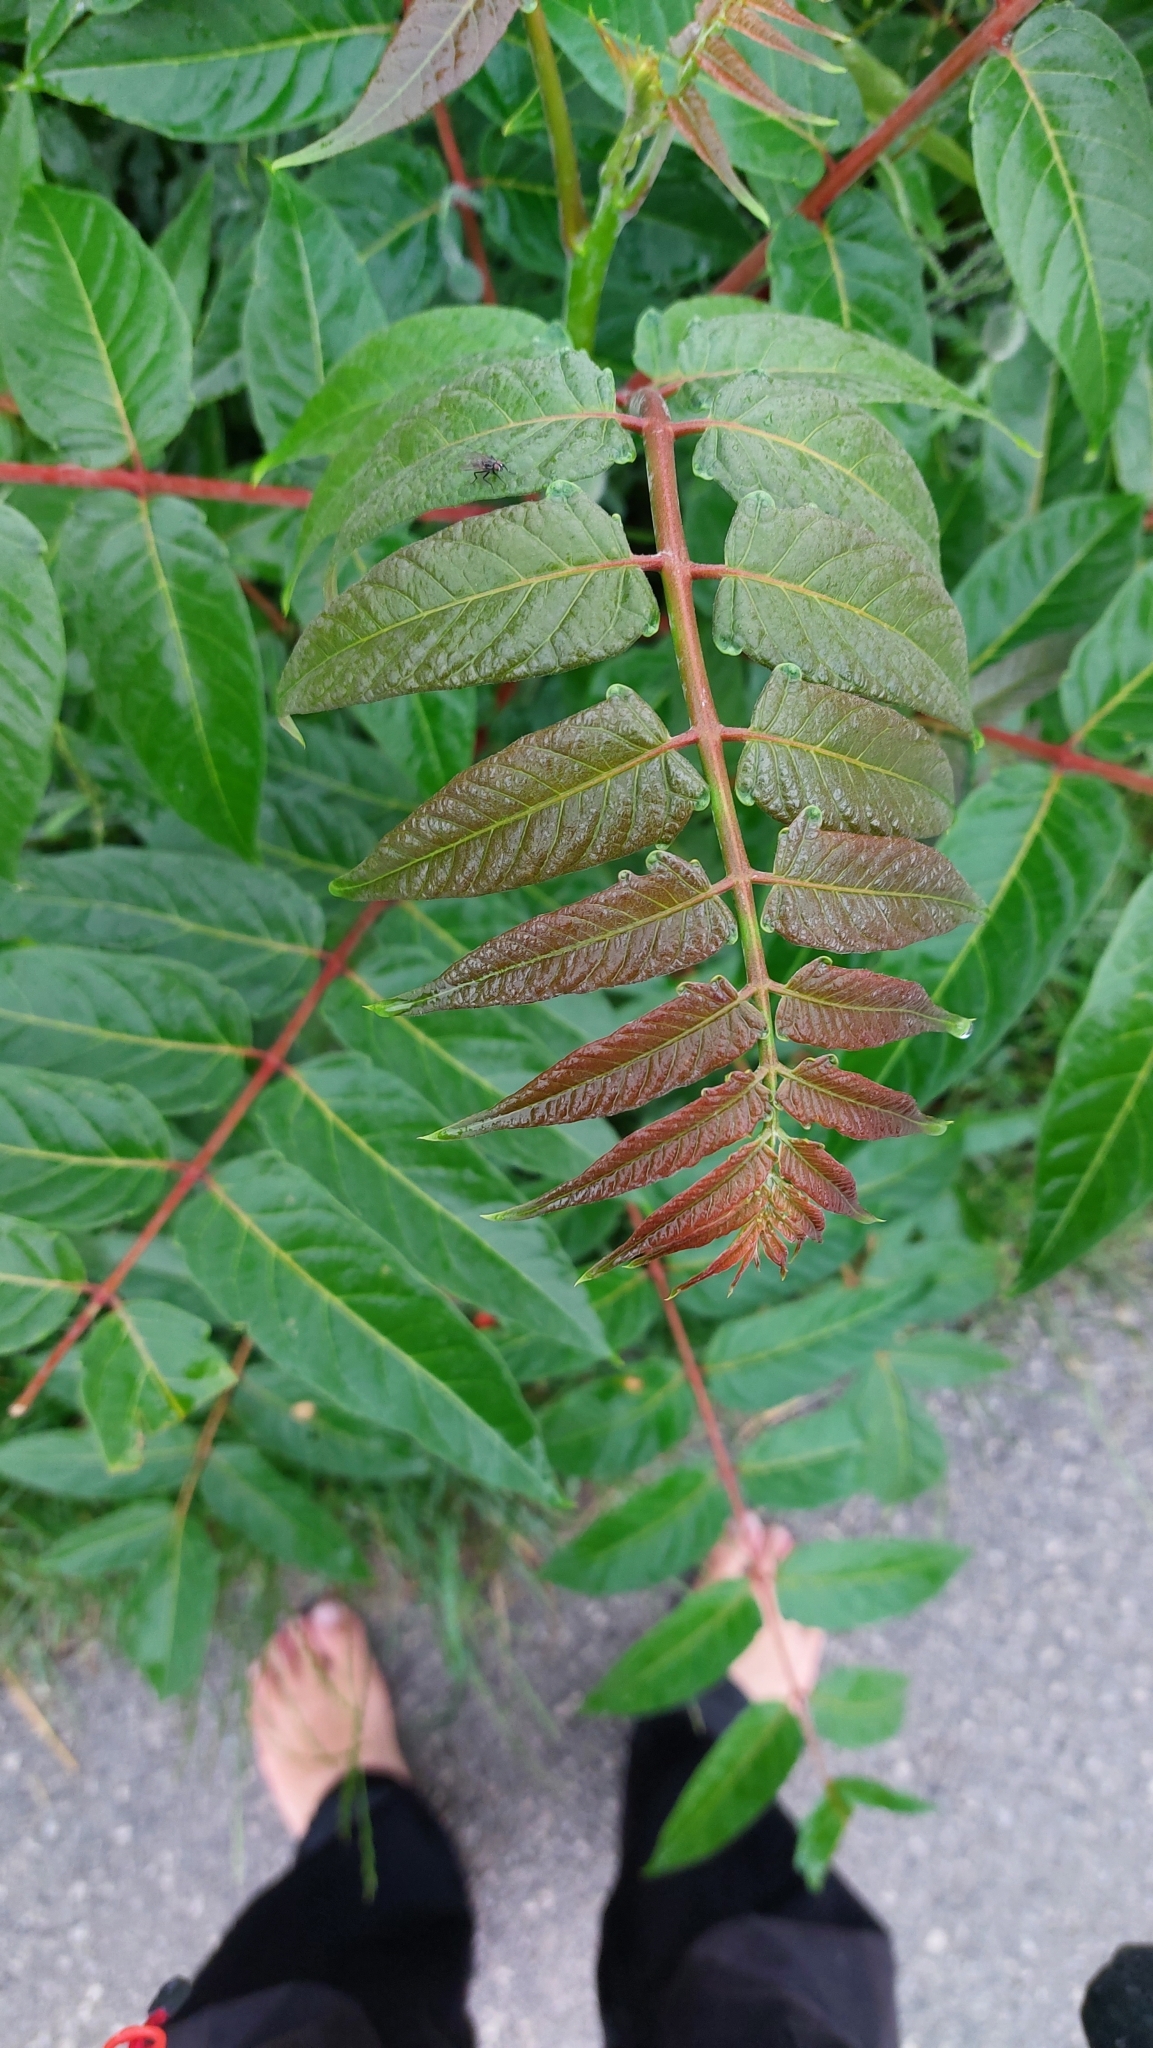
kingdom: Plantae
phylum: Tracheophyta
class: Magnoliopsida
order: Sapindales
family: Simaroubaceae
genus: Ailanthus
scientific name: Ailanthus altissima
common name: Tree-of-heaven
